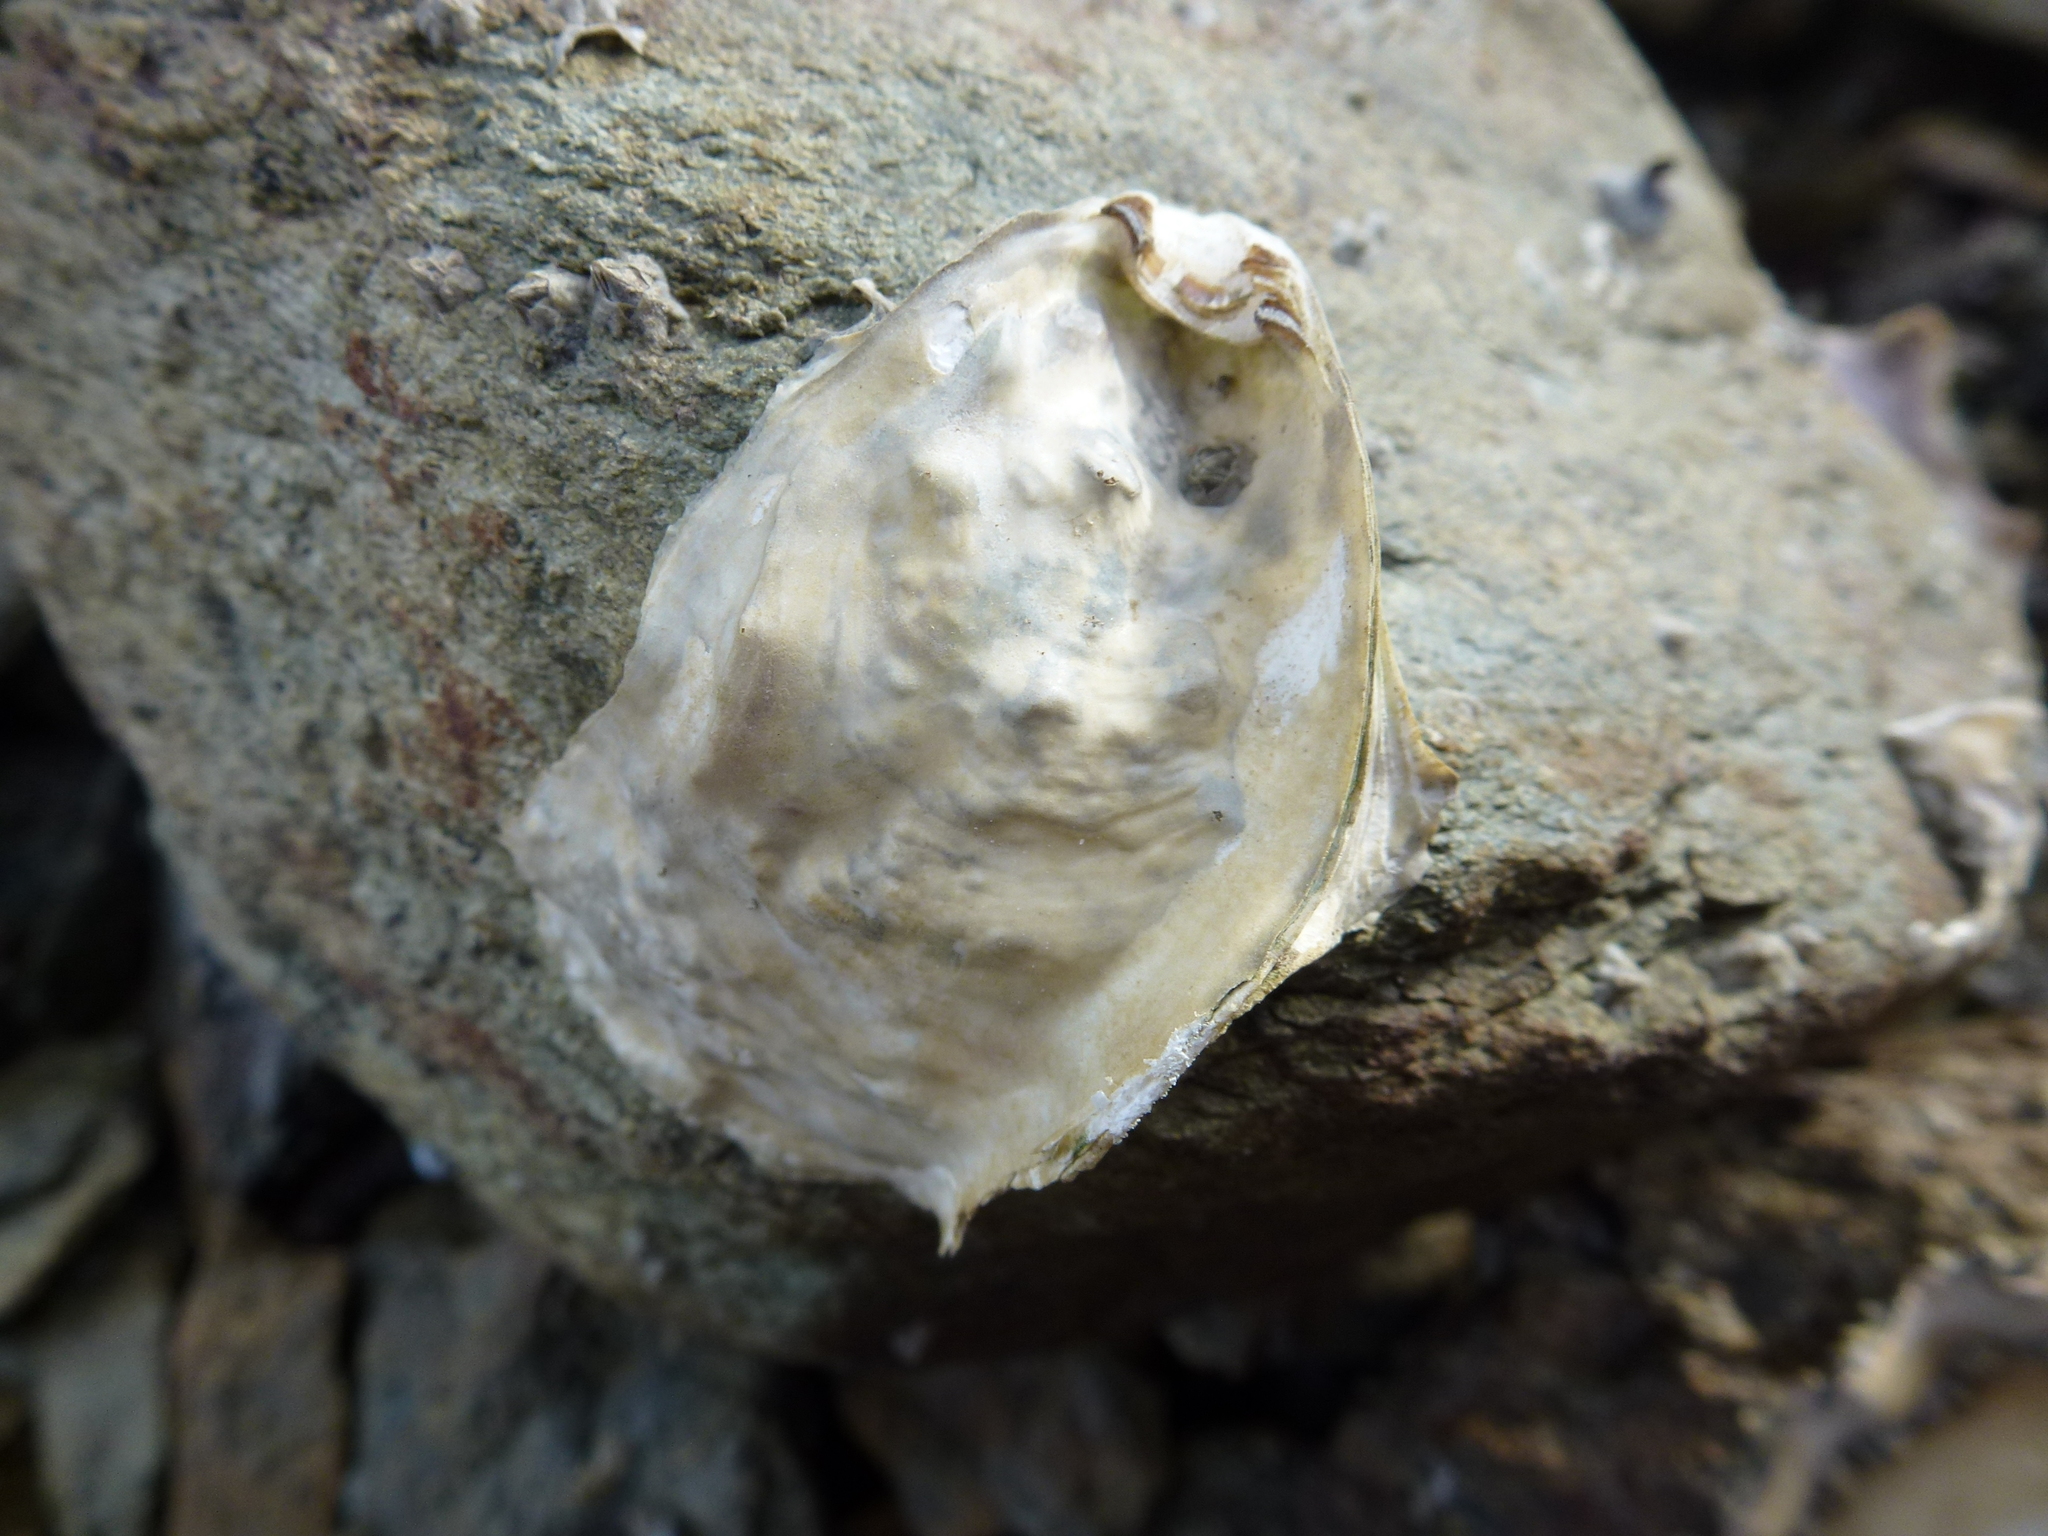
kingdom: Animalia
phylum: Mollusca
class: Bivalvia
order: Ostreida
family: Ostreidae
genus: Magallana
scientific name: Magallana gigas
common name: Pacific oyster
